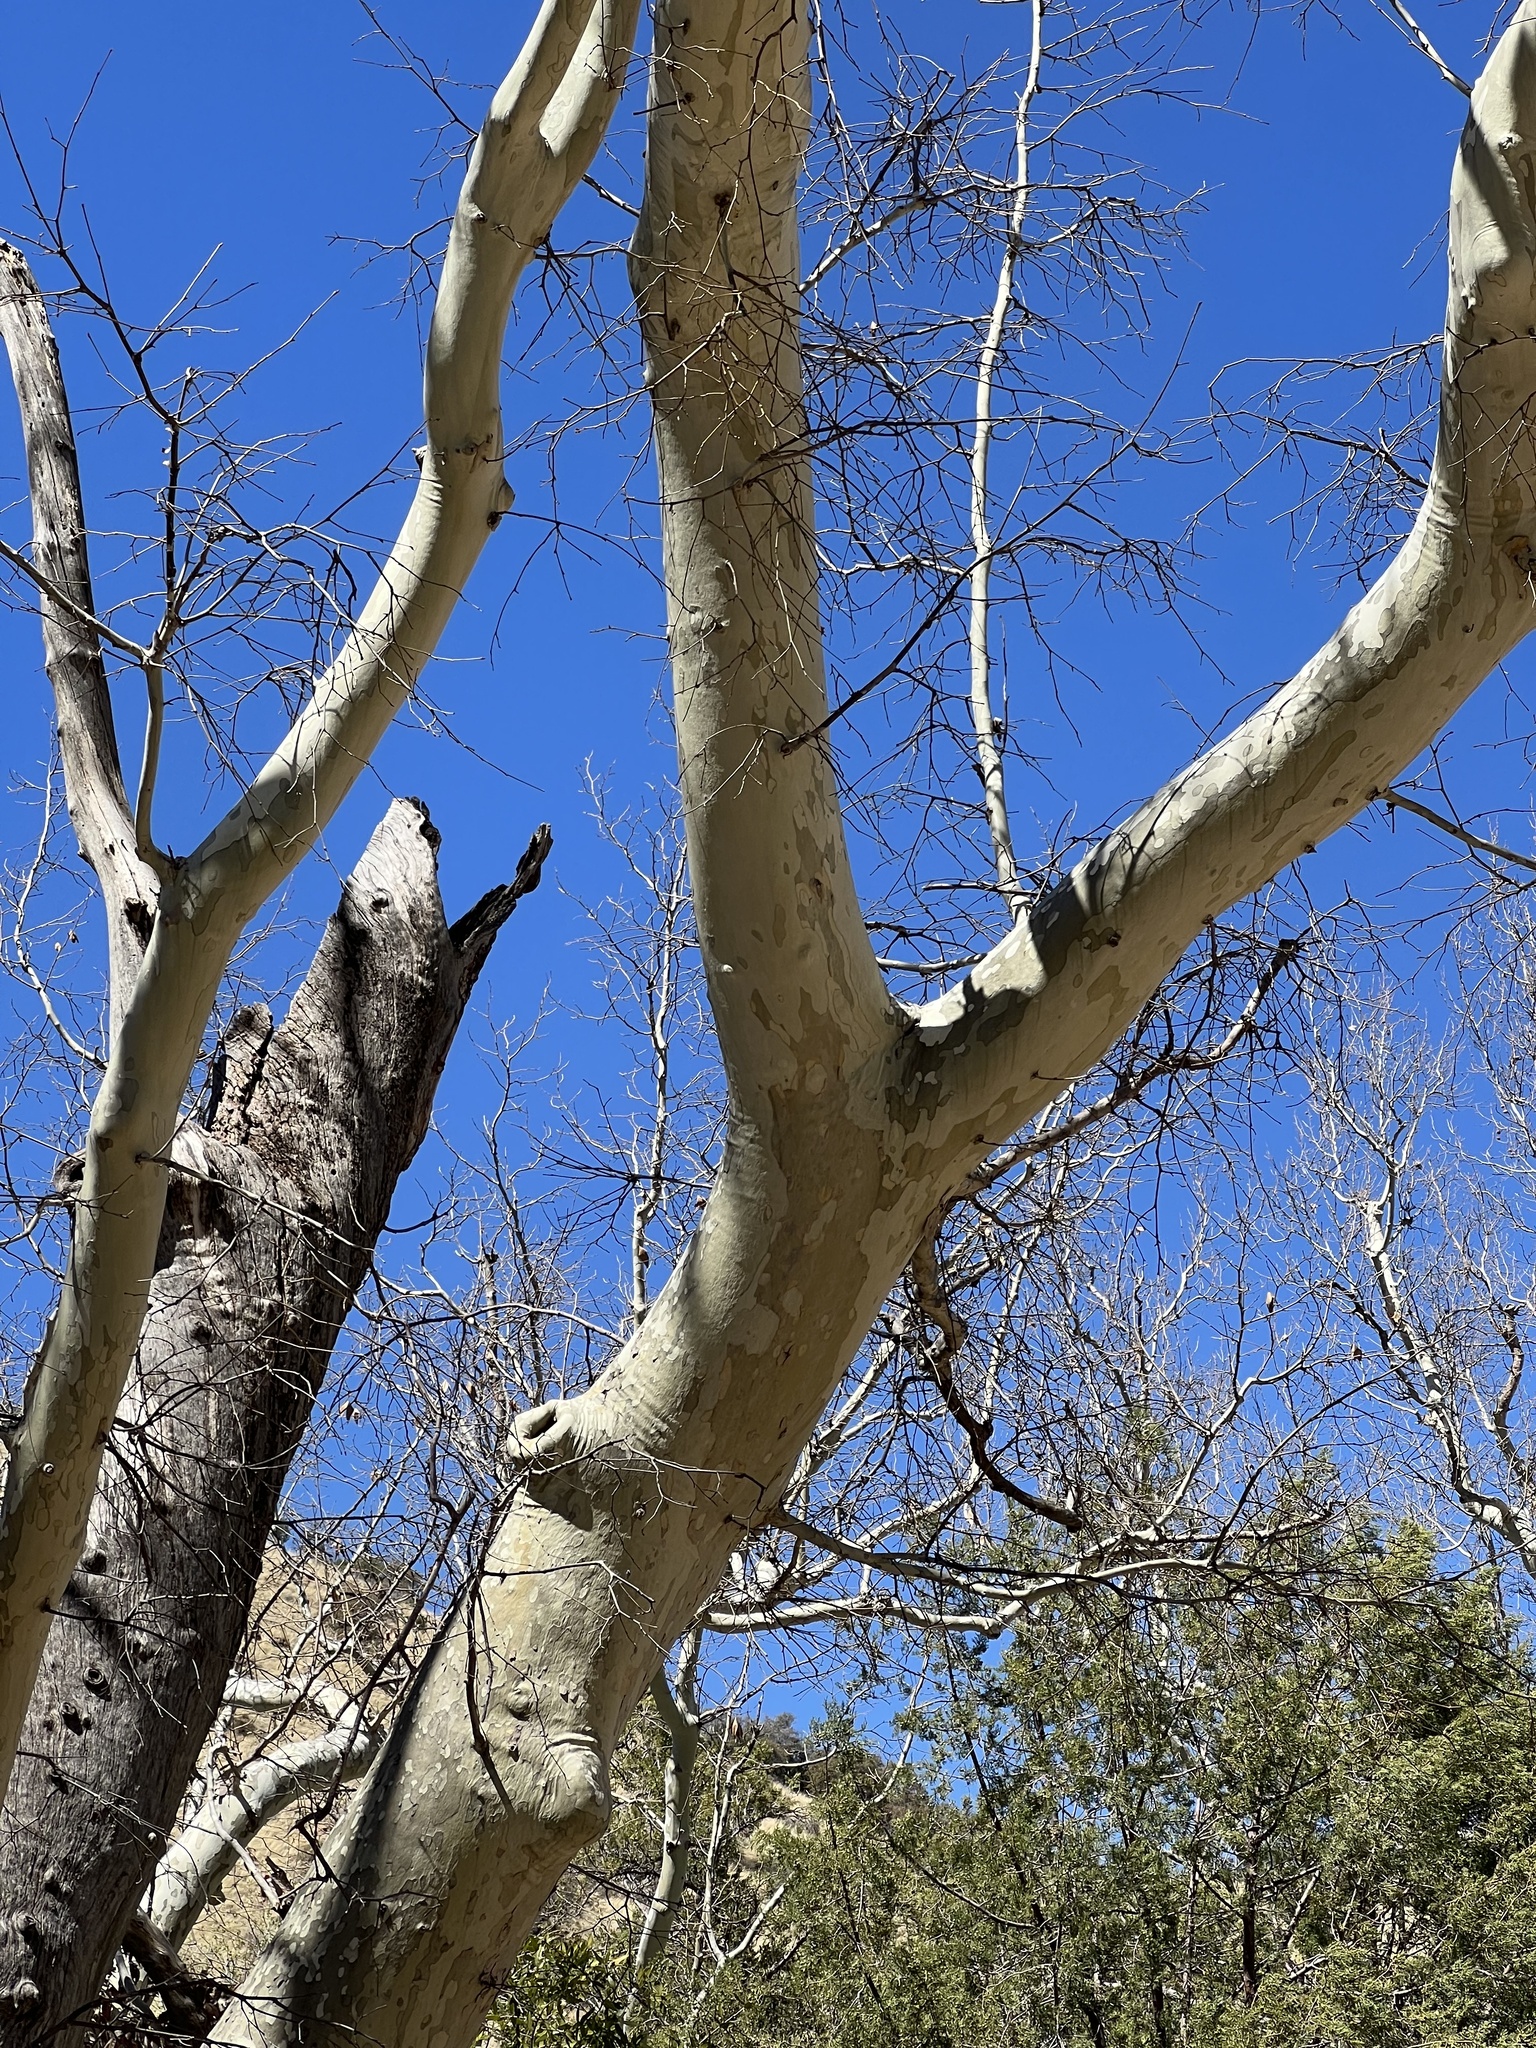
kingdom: Plantae
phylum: Tracheophyta
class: Magnoliopsida
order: Proteales
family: Platanaceae
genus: Platanus
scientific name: Platanus wrightii
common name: Arizona sycamore
